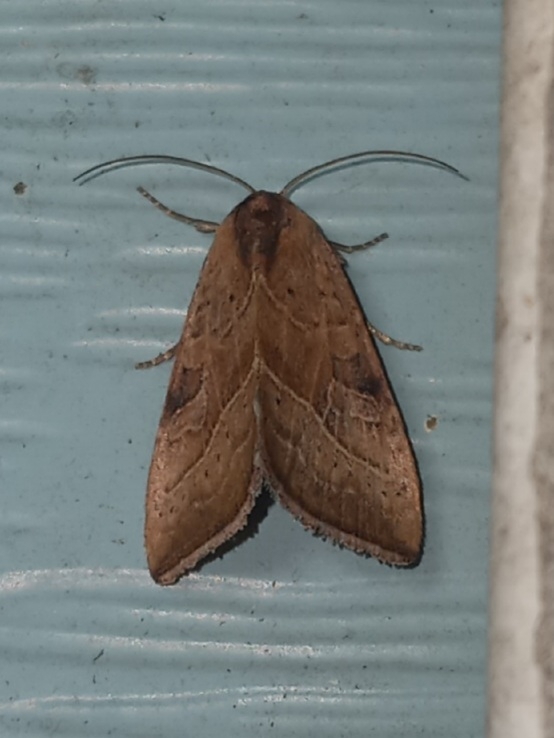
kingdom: Animalia
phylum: Arthropoda
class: Insecta
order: Lepidoptera
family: Noctuidae
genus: Galgula
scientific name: Galgula partita
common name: Wedgeling
